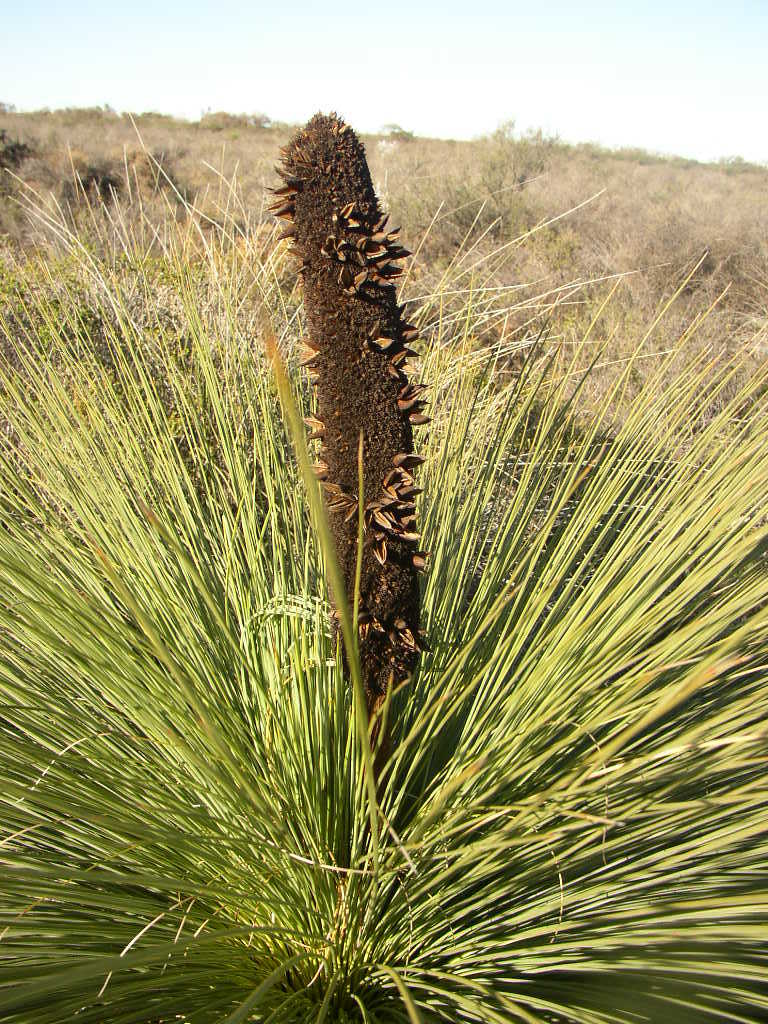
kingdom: Plantae
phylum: Tracheophyta
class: Liliopsida
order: Asparagales
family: Asphodelaceae
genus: Xanthorrhoea
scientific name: Xanthorrhoea drummondii
